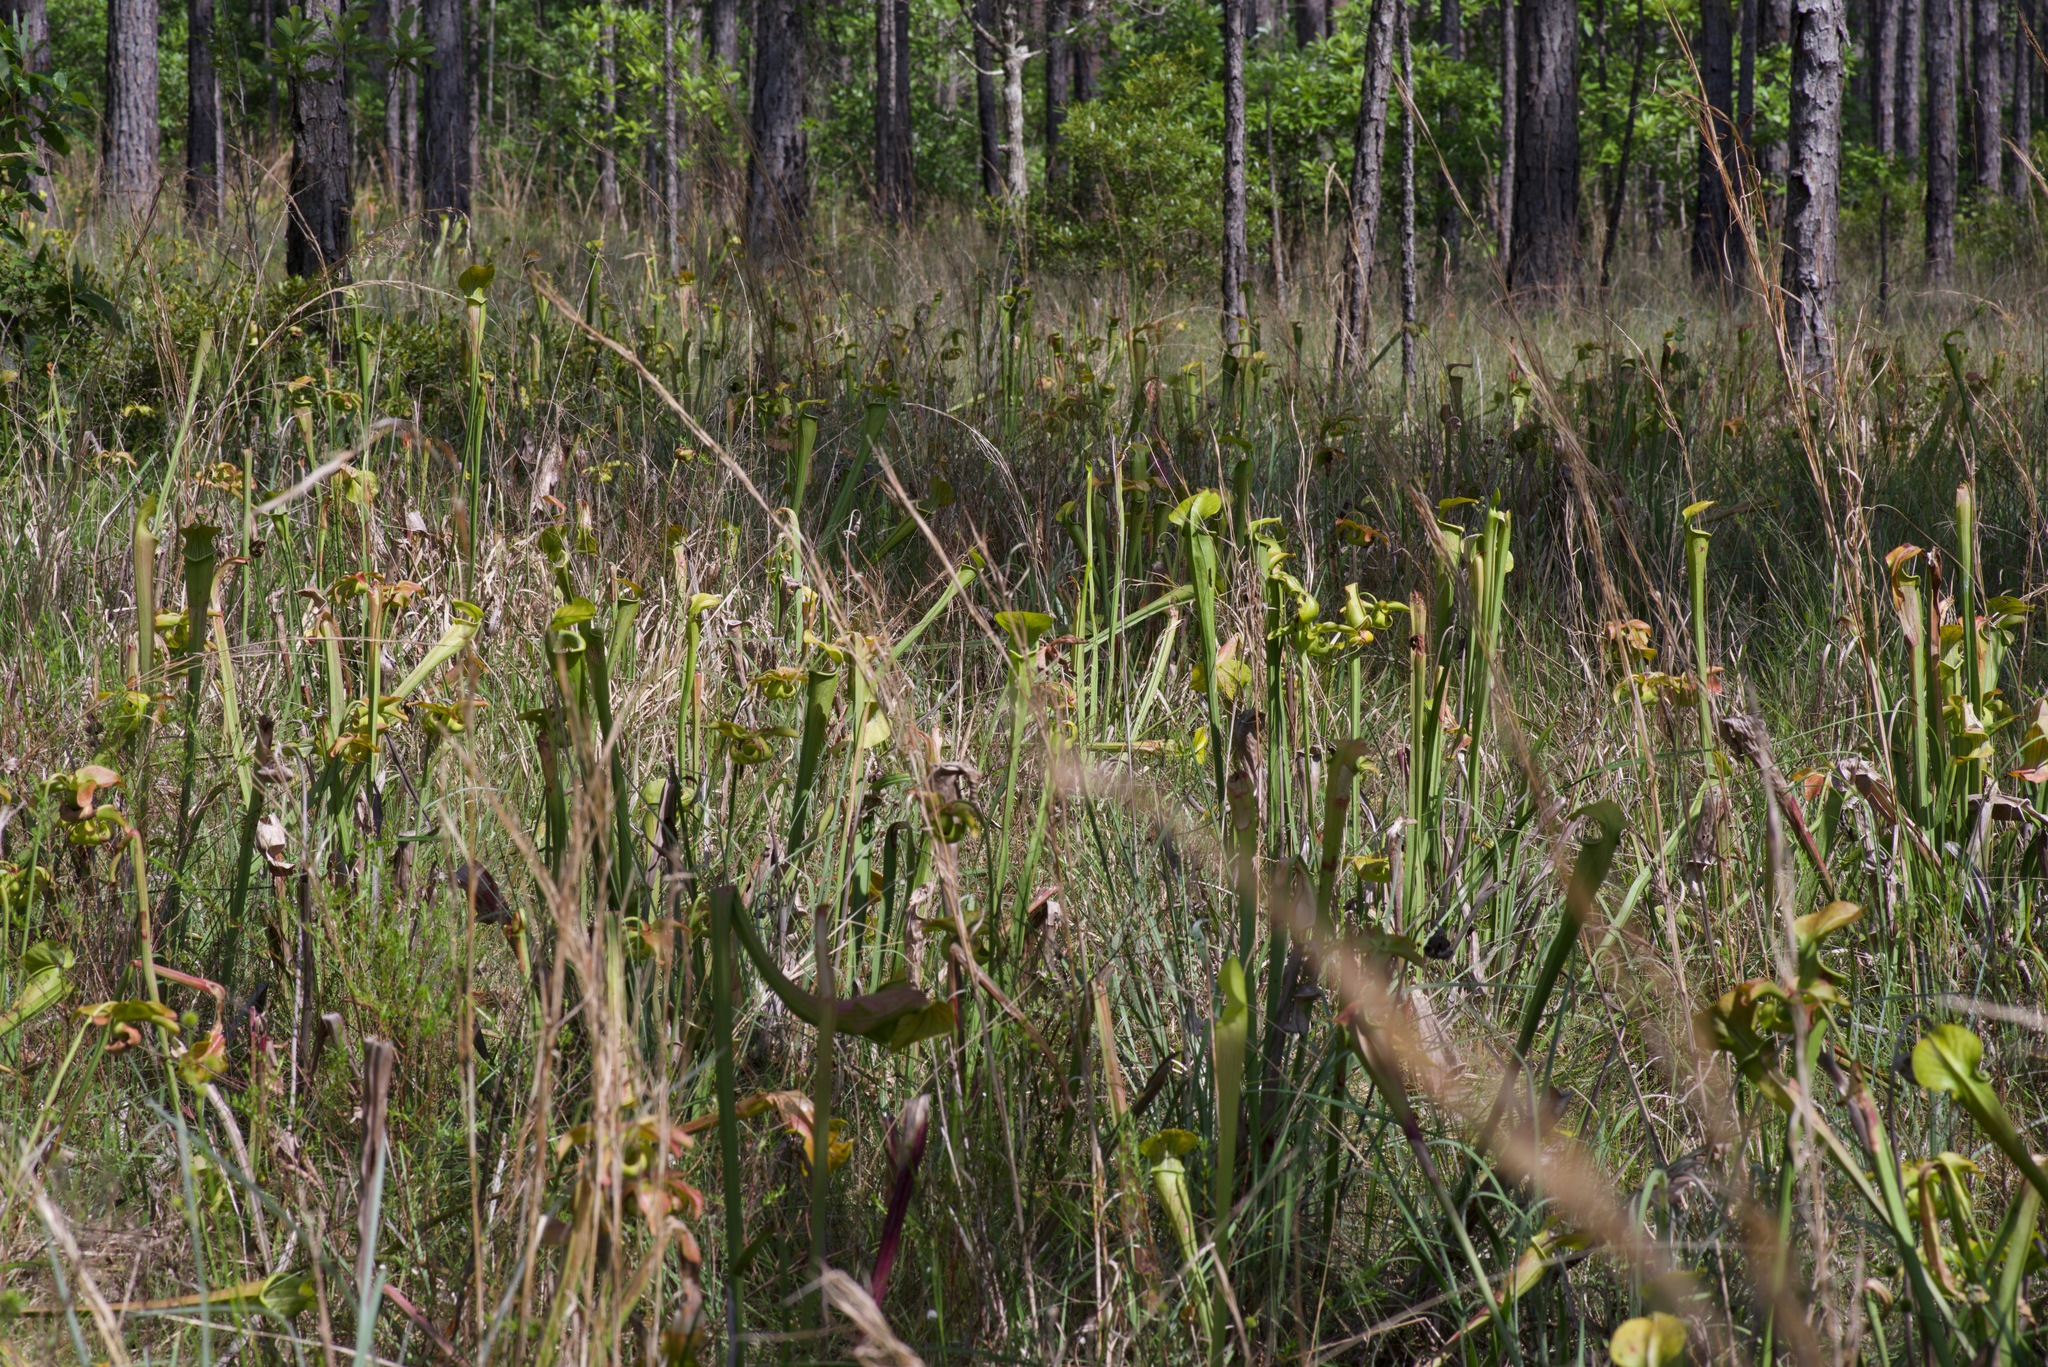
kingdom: Plantae
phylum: Tracheophyta
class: Magnoliopsida
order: Ericales
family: Sarraceniaceae
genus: Sarracenia
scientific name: Sarracenia alata
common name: Yellow trumpets
